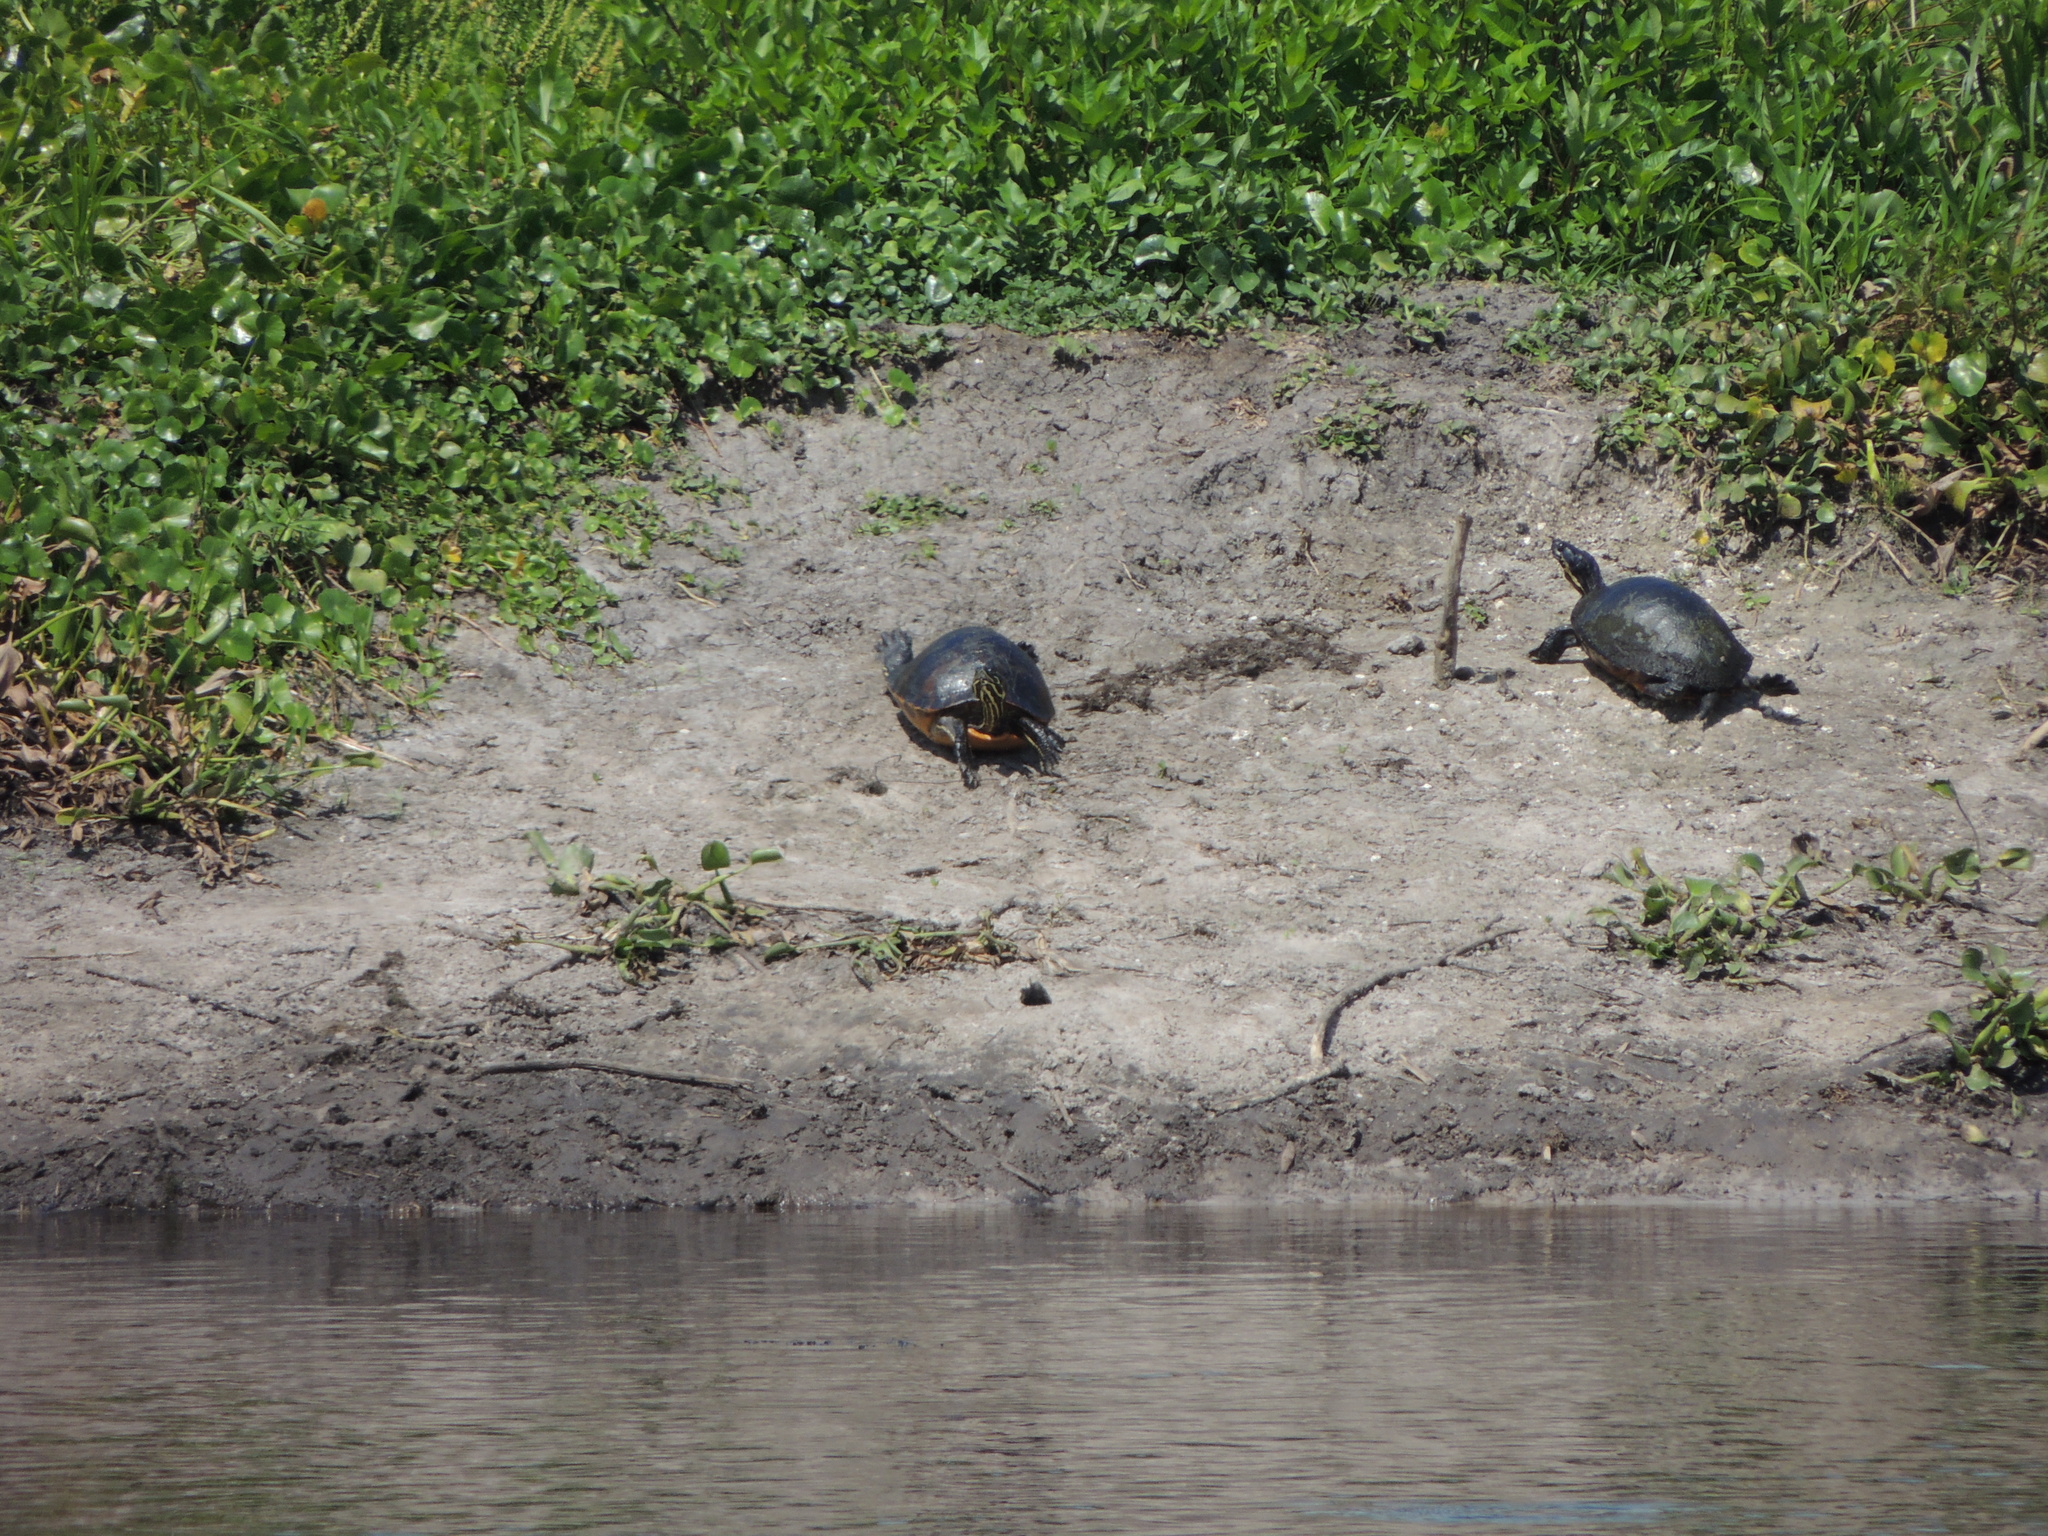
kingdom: Animalia
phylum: Chordata
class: Testudines
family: Emydidae
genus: Pseudemys
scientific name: Pseudemys nelsoni
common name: Florida red-bellied turtle
